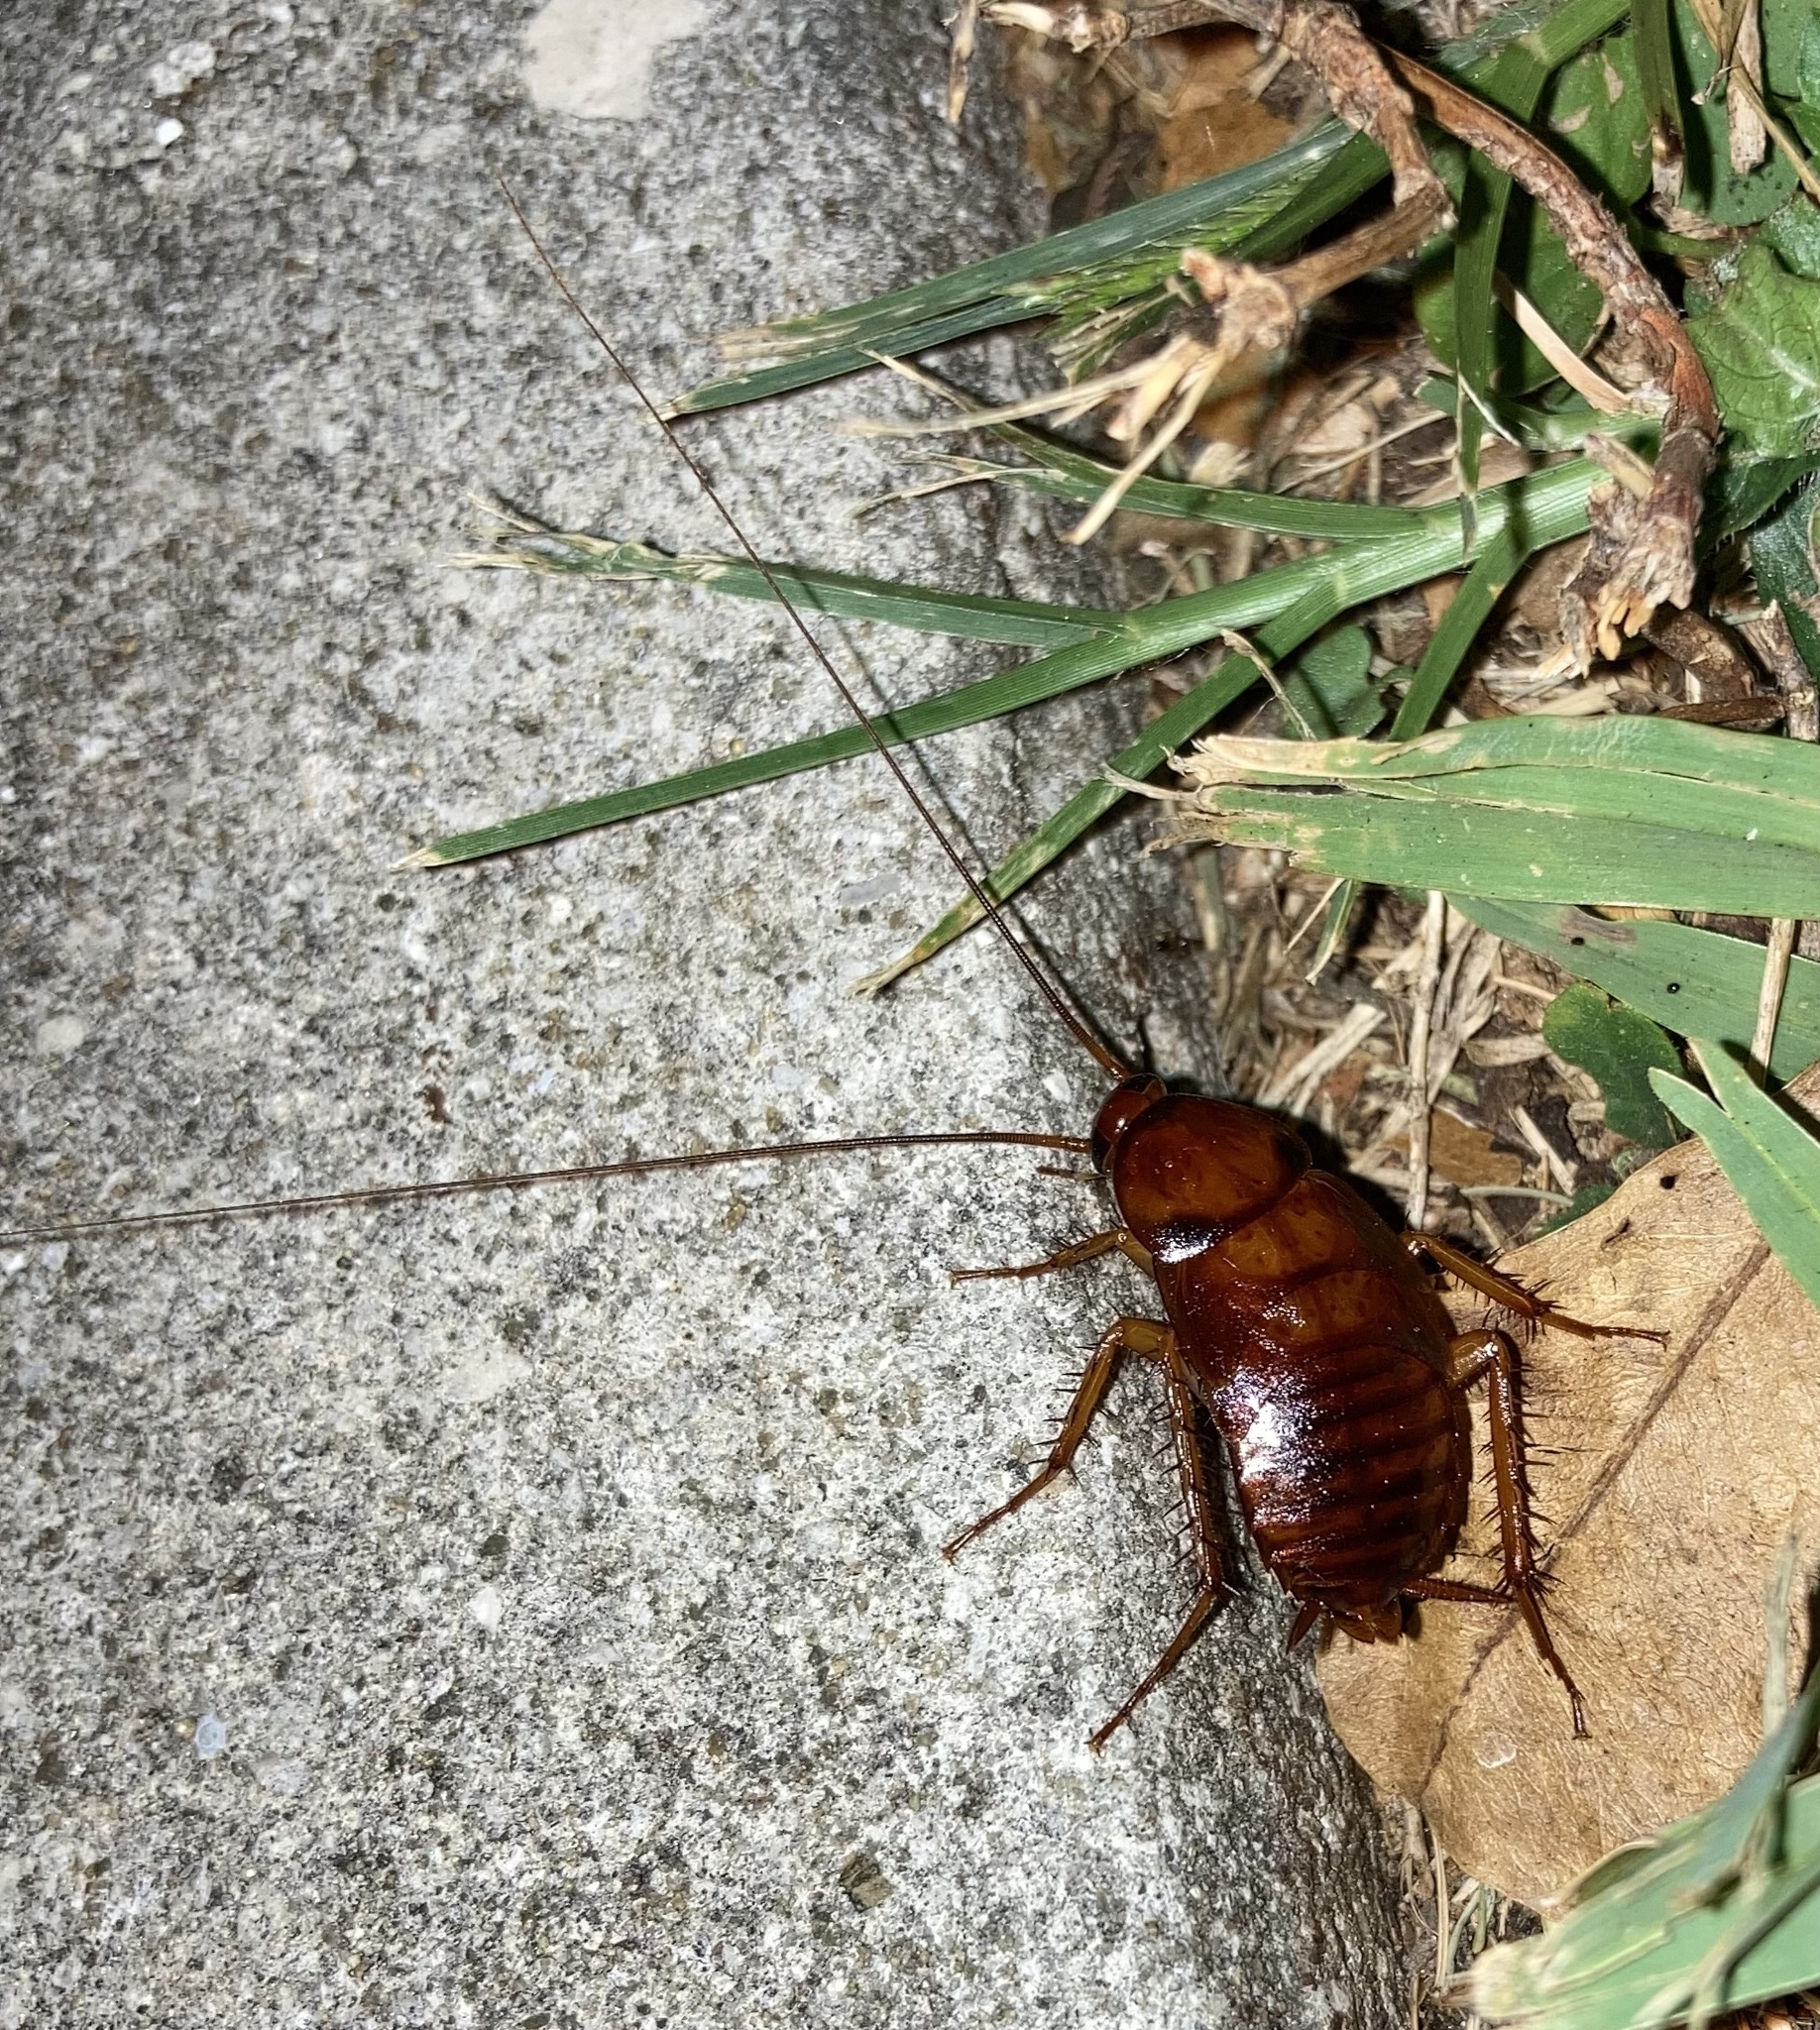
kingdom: Animalia
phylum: Arthropoda
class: Insecta
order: Blattodea
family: Blattidae
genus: Periplaneta
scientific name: Periplaneta americana
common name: American cockroach
